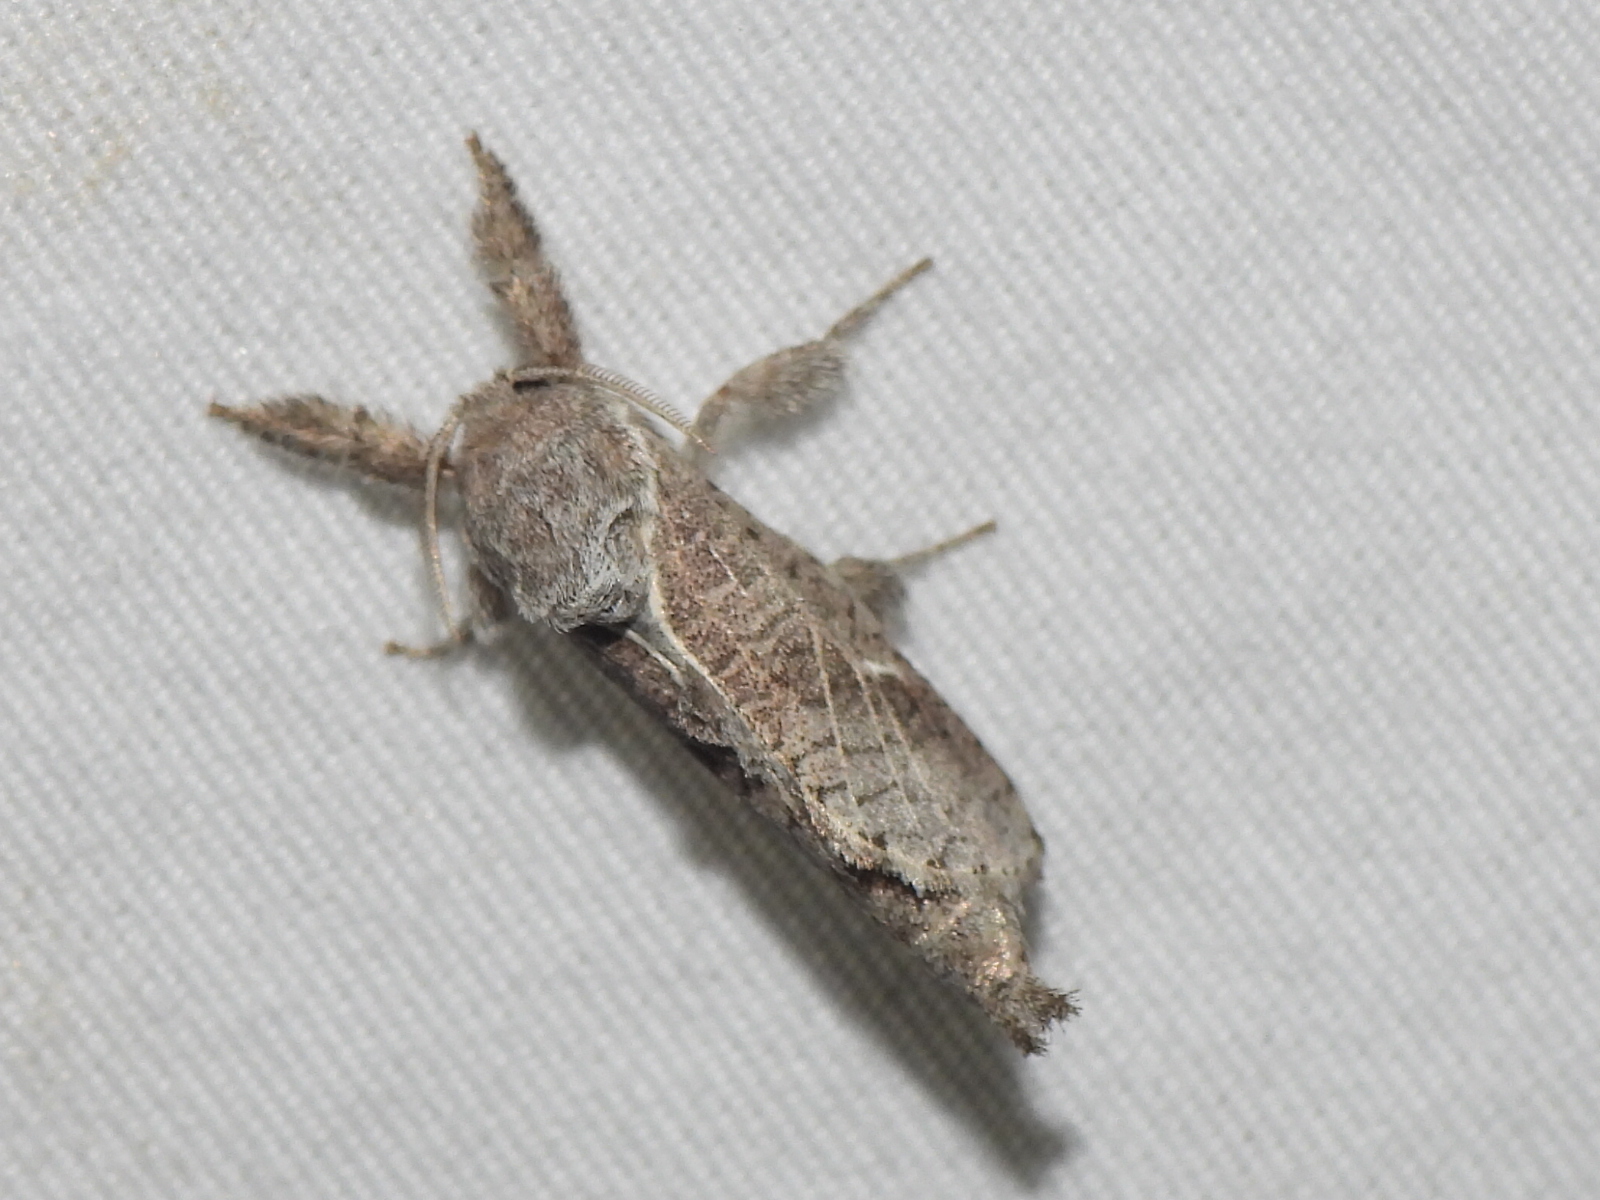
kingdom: Animalia
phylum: Arthropoda
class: Insecta
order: Lepidoptera
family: Cossidae
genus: Givira
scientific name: Givira anna
